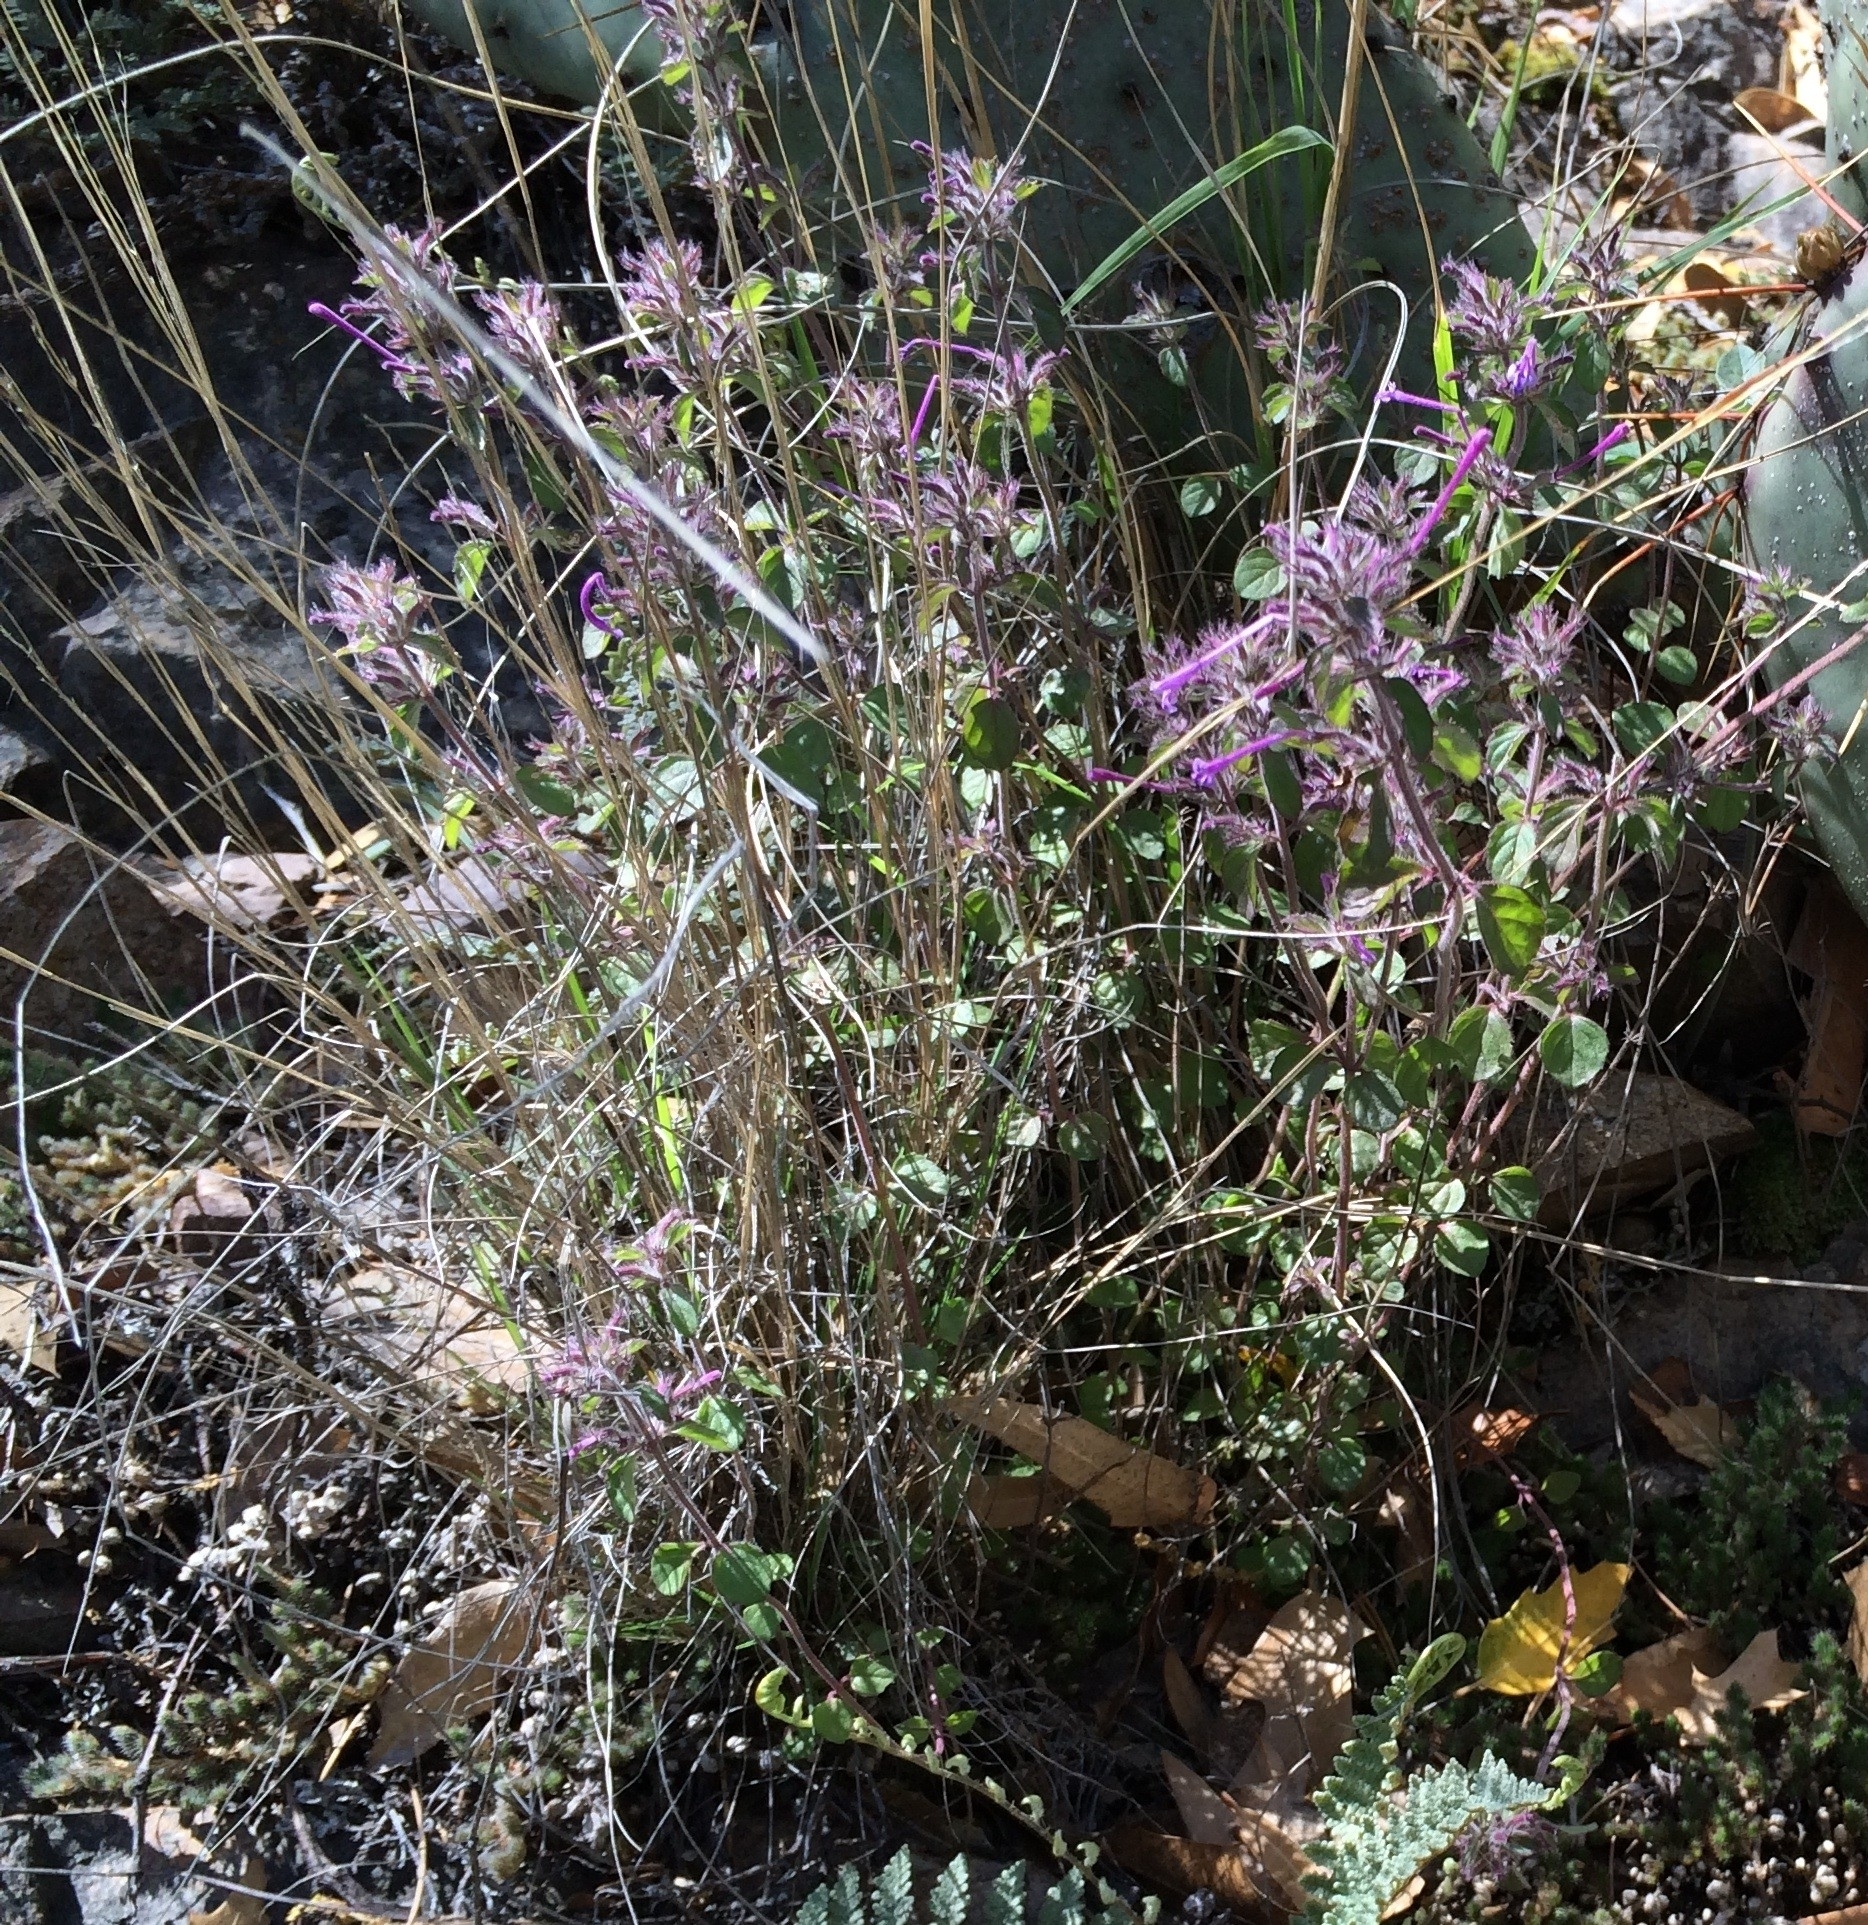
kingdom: Plantae
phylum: Tracheophyta
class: Magnoliopsida
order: Lamiales
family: Lamiaceae
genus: Hedeoma
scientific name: Hedeoma costata
